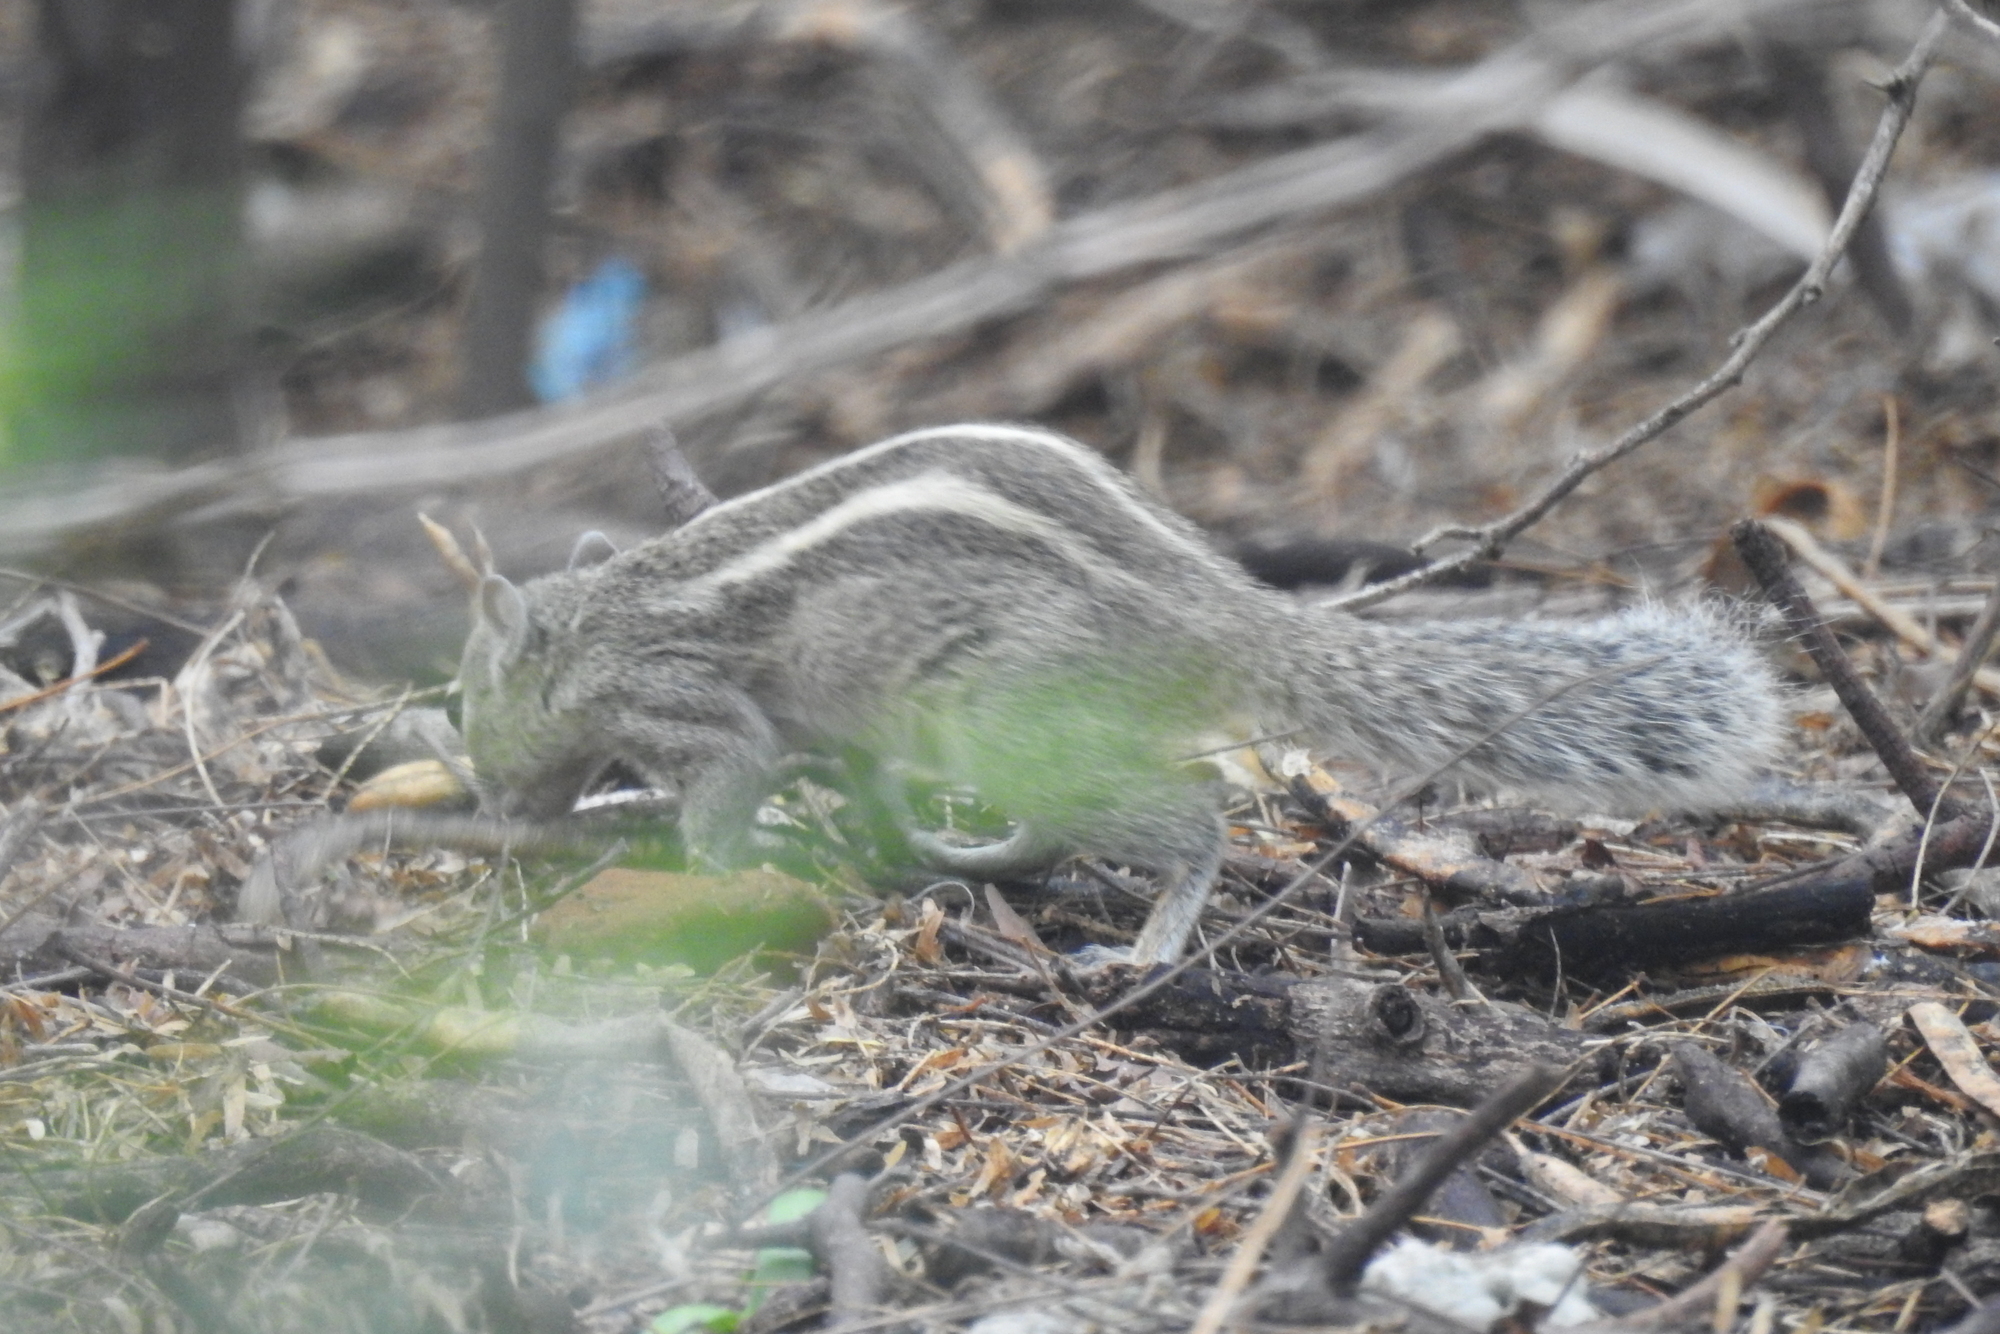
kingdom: Animalia
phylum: Chordata
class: Mammalia
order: Rodentia
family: Sciuridae
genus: Funambulus
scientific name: Funambulus palmarum
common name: Indian palm squirrel
